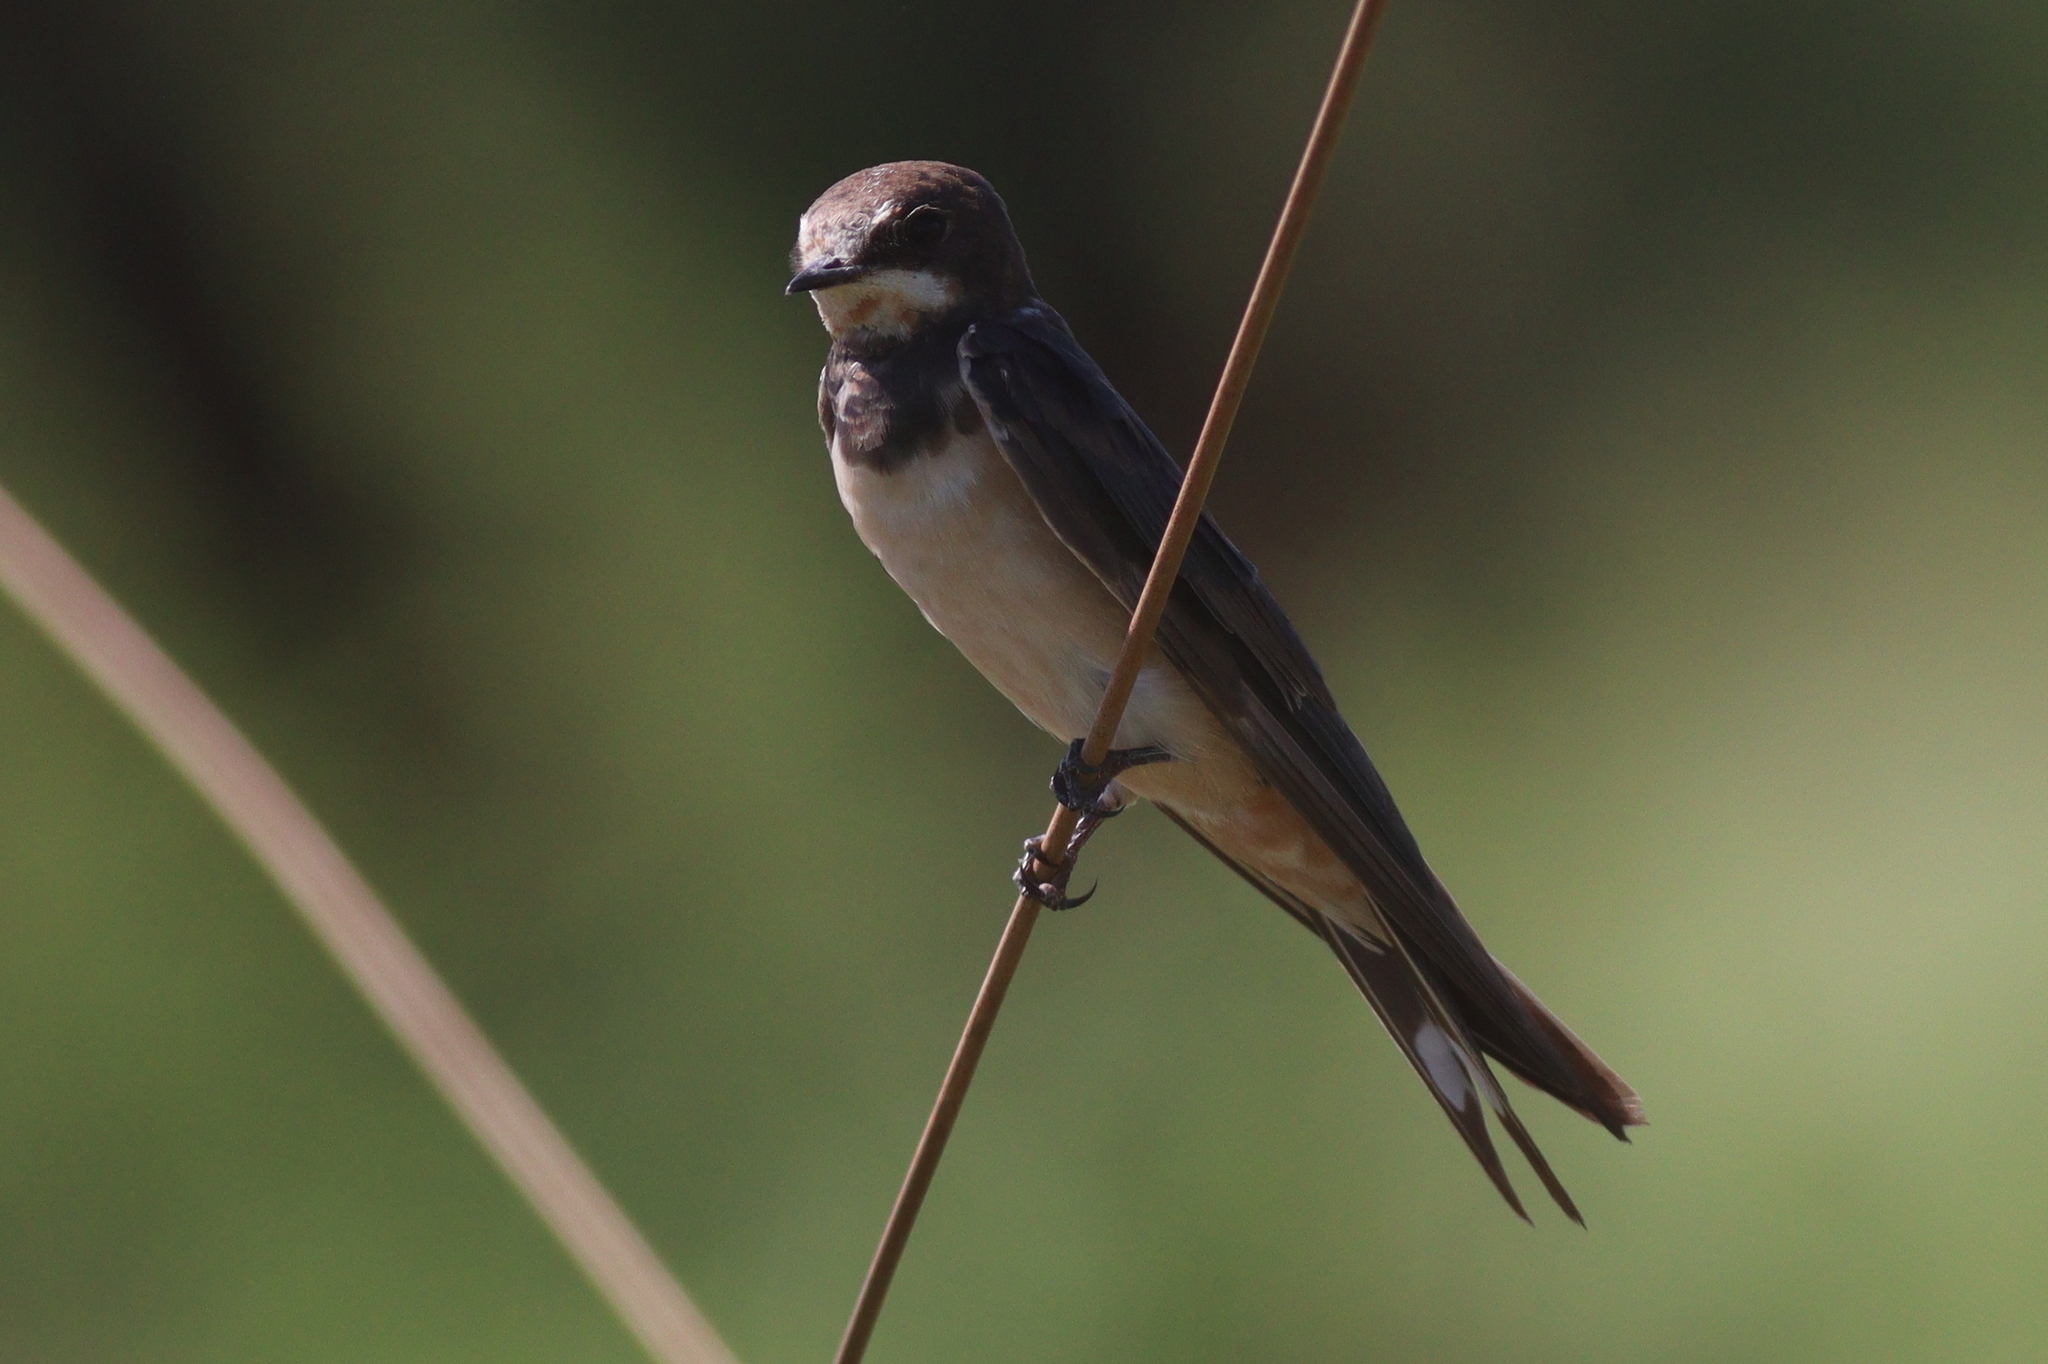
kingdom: Animalia
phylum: Chordata
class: Aves
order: Passeriformes
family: Hirundinidae
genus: Hirundo
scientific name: Hirundo rustica
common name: Barn swallow
